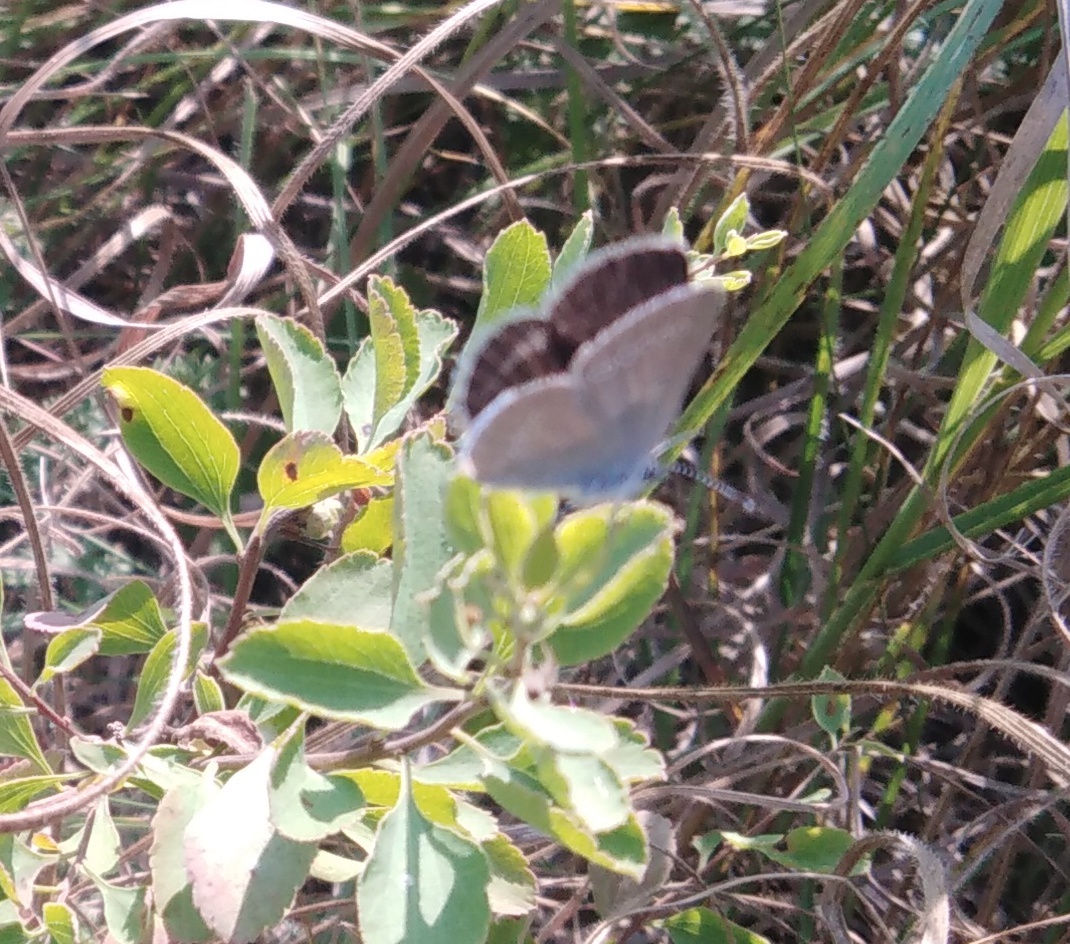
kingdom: Animalia
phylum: Arthropoda
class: Insecta
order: Lepidoptera
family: Lycaenidae
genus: Cupido
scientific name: Cupido minimus
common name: Small blue
